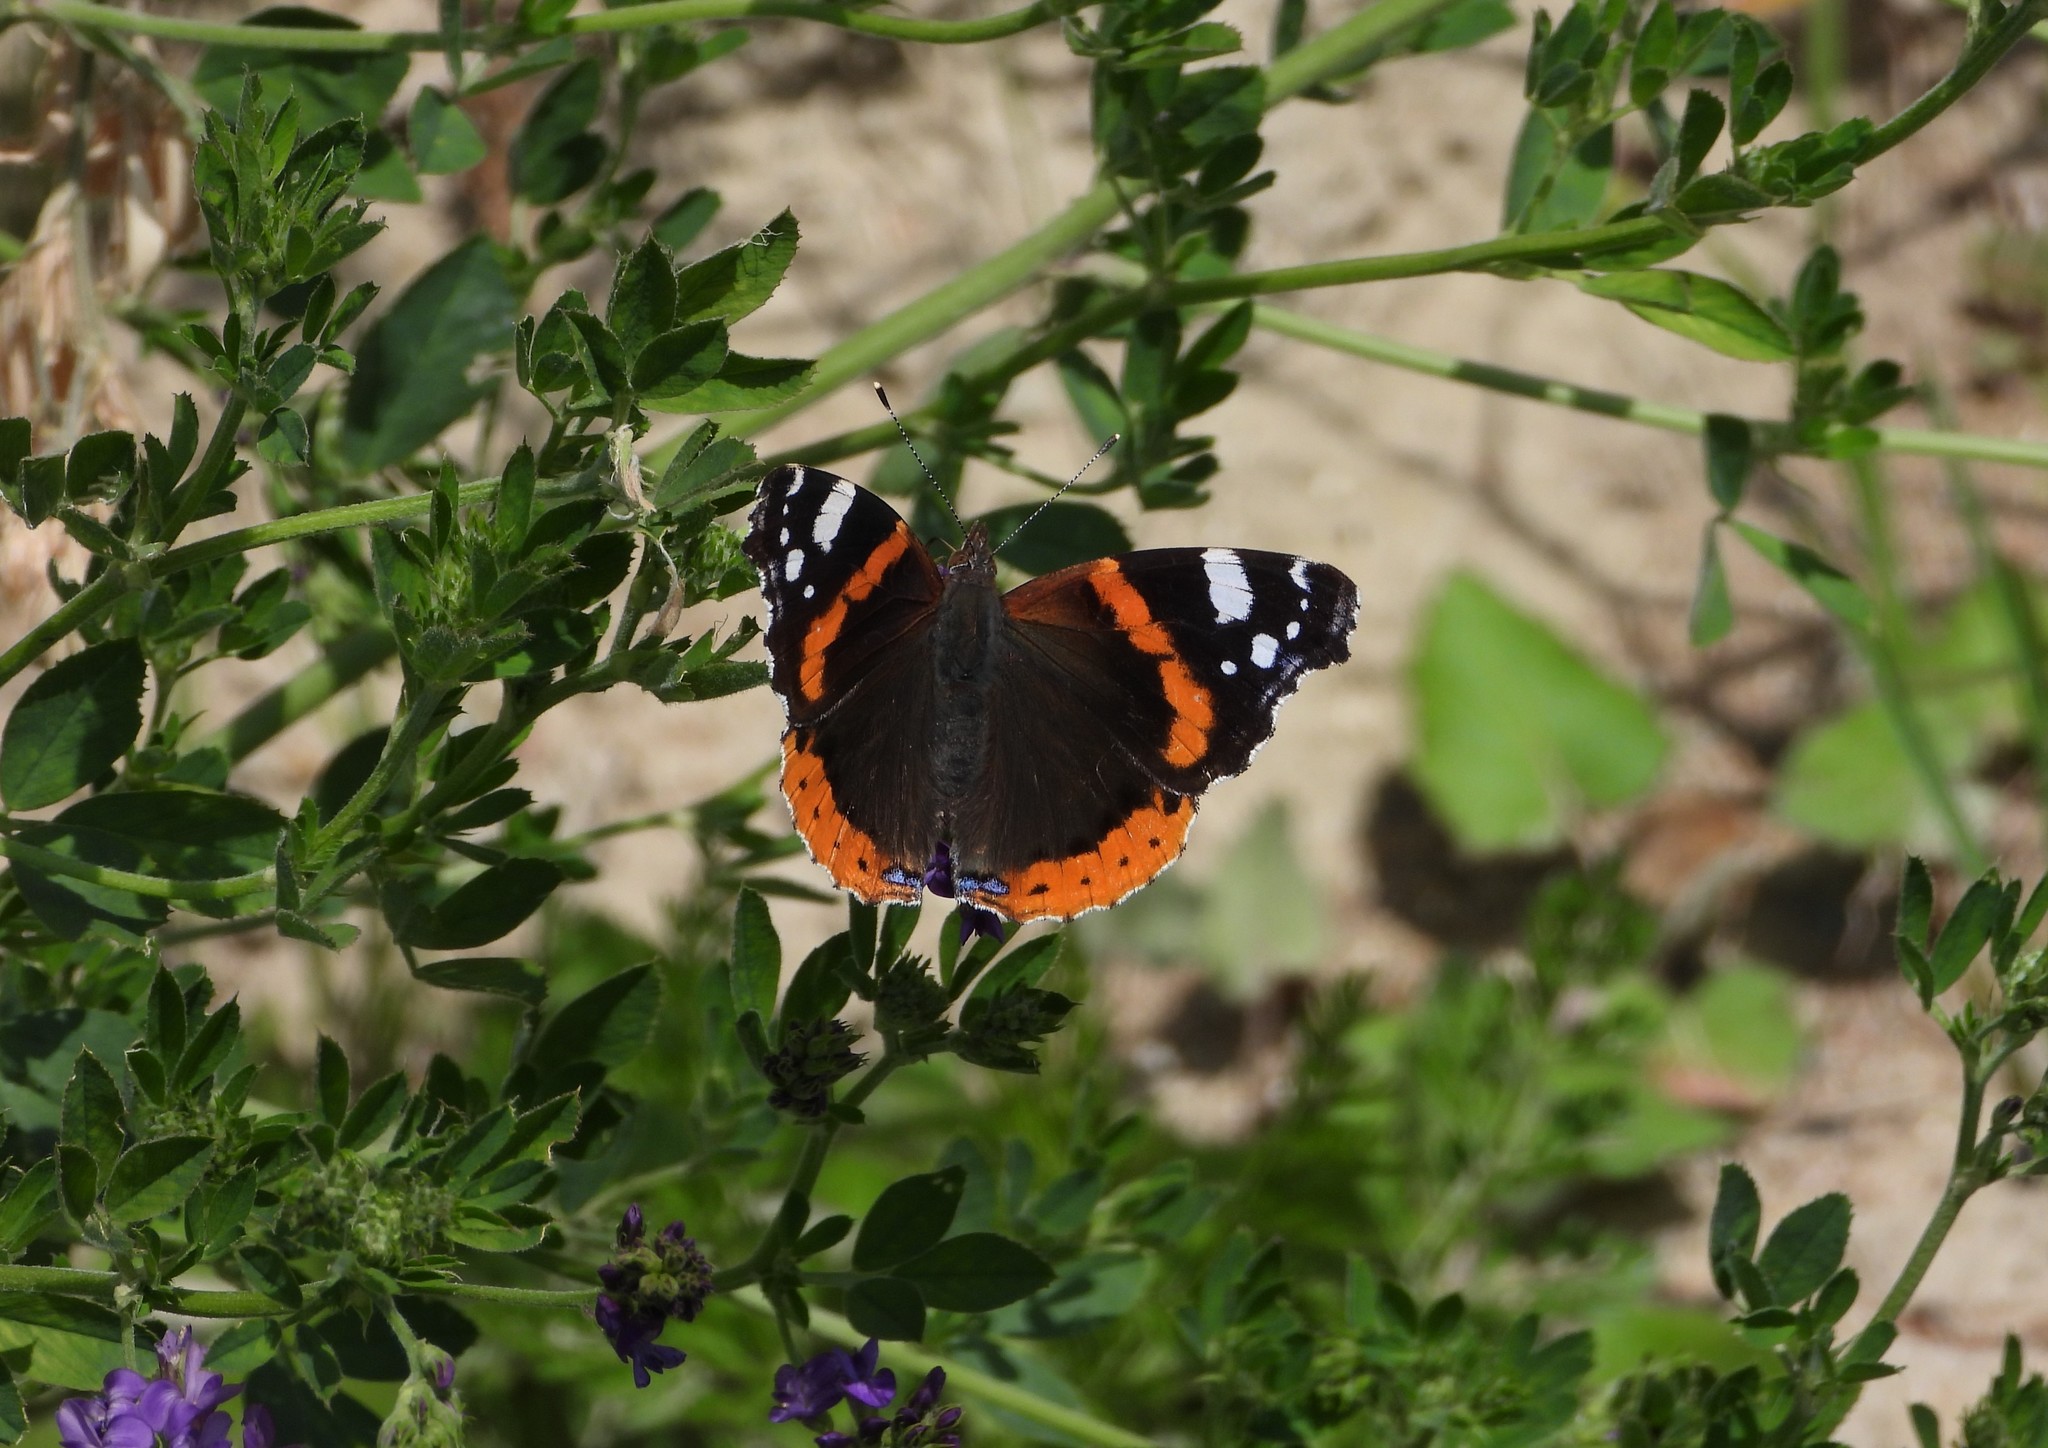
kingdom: Animalia
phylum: Arthropoda
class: Insecta
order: Lepidoptera
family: Nymphalidae
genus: Vanessa
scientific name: Vanessa atalanta
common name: Red admiral
